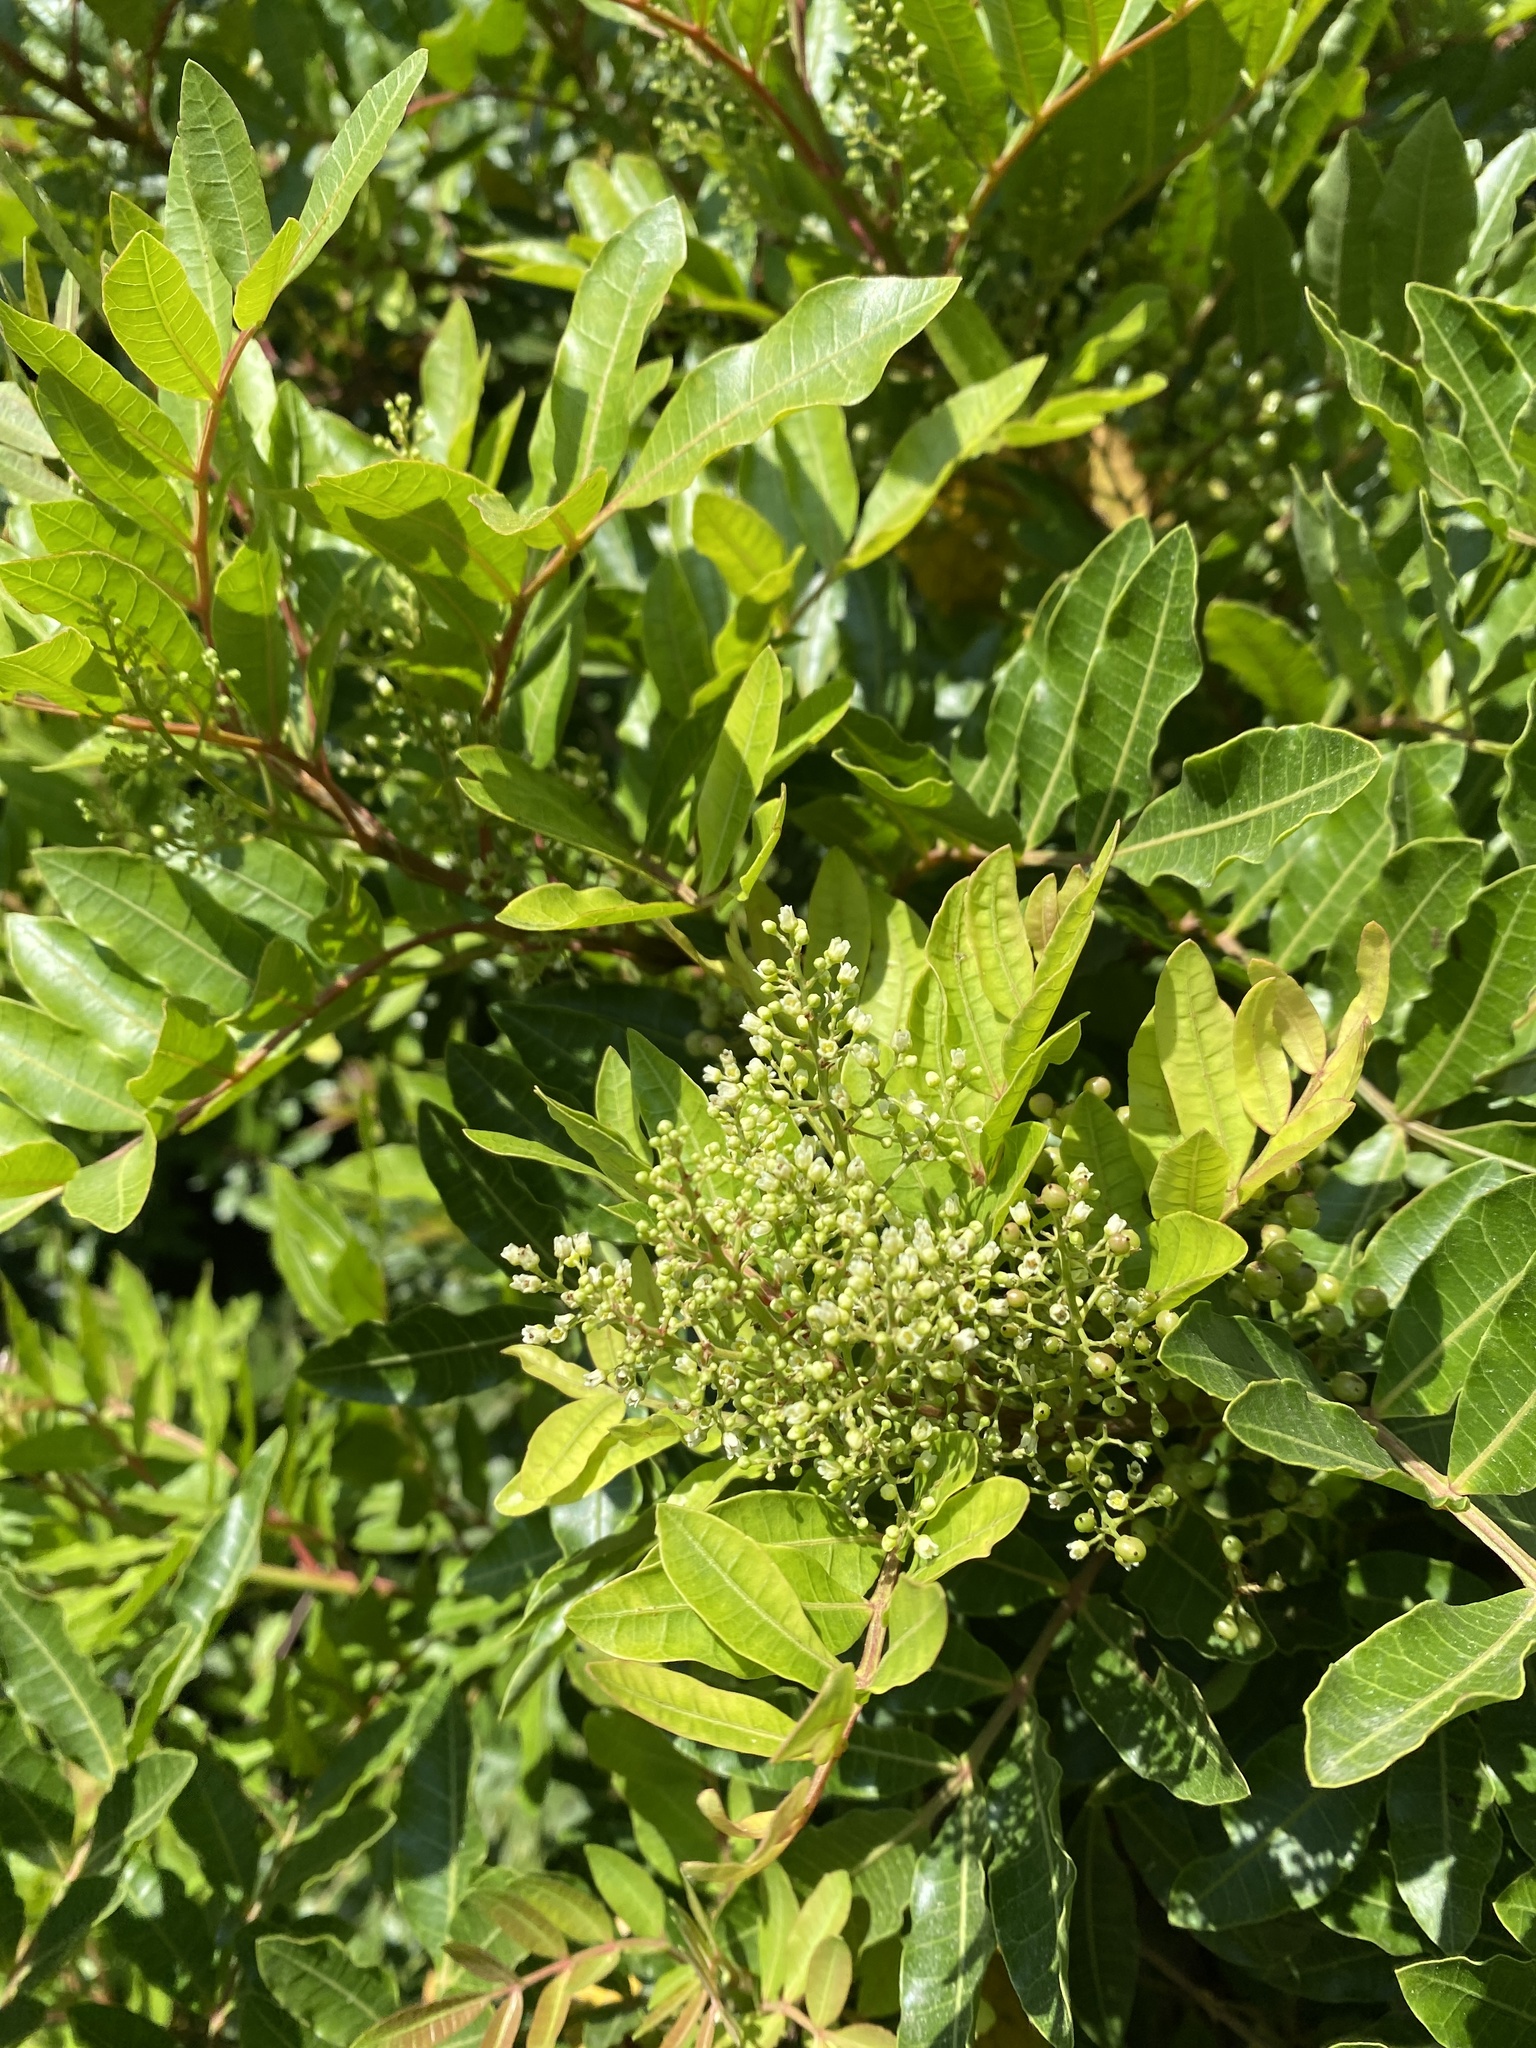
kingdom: Plantae
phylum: Tracheophyta
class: Magnoliopsida
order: Sapindales
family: Anacardiaceae
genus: Schinus
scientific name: Schinus terebinthifolia
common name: Brazilian peppertree
